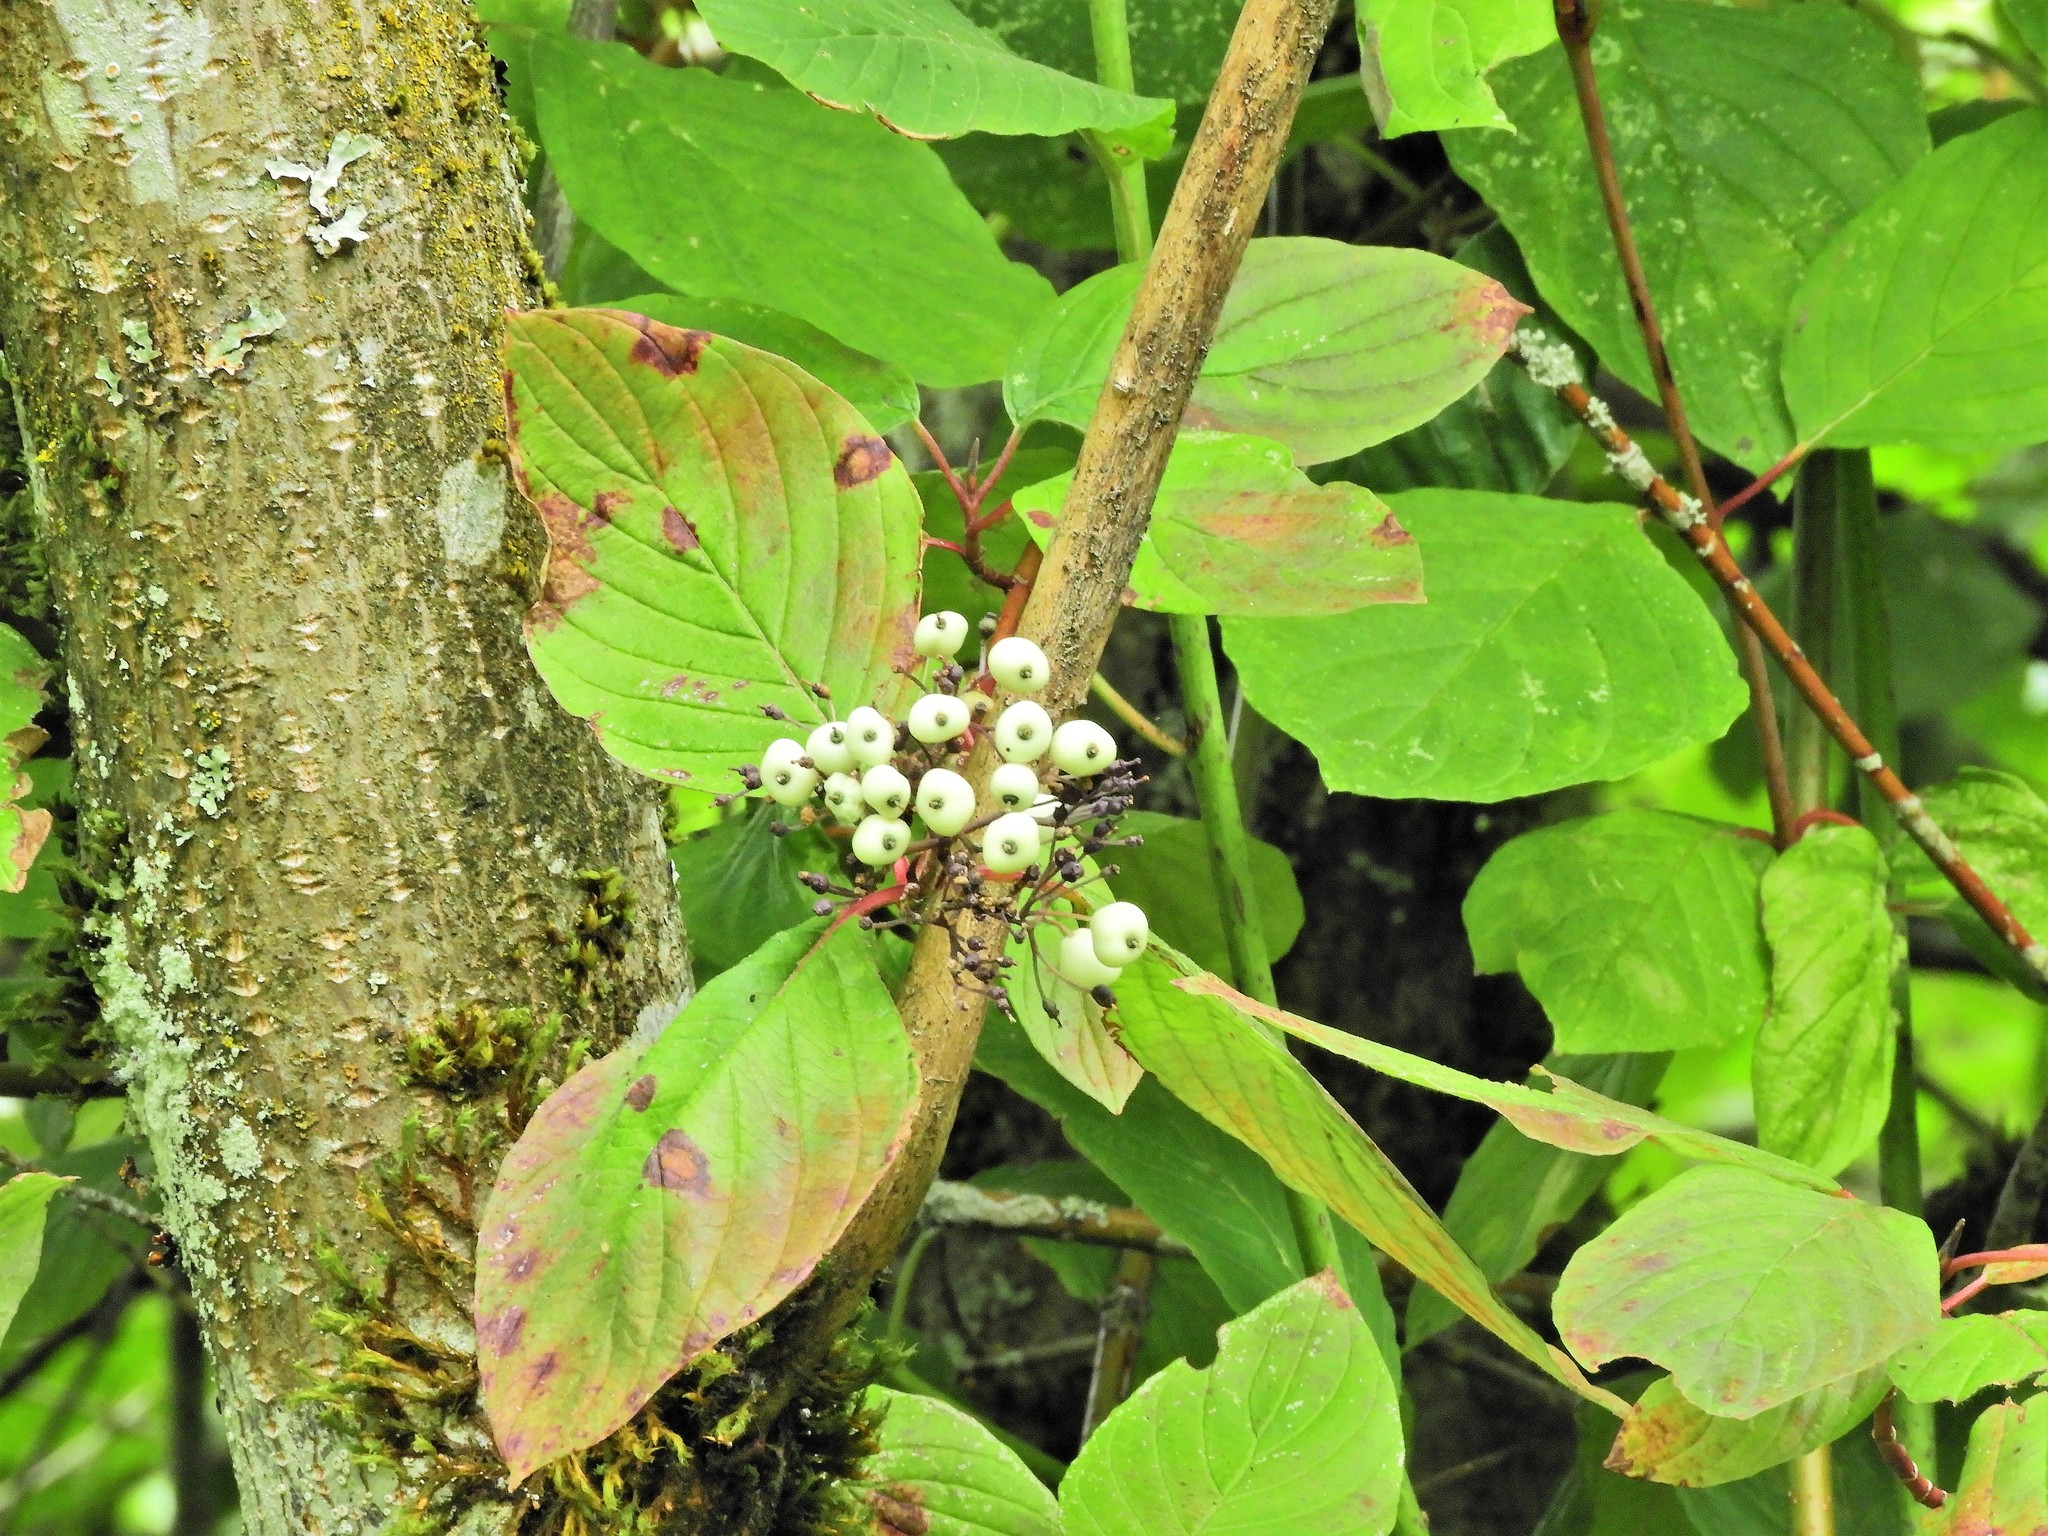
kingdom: Plantae
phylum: Tracheophyta
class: Magnoliopsida
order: Cornales
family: Cornaceae
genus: Cornus
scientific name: Cornus sericea
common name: Red-osier dogwood
